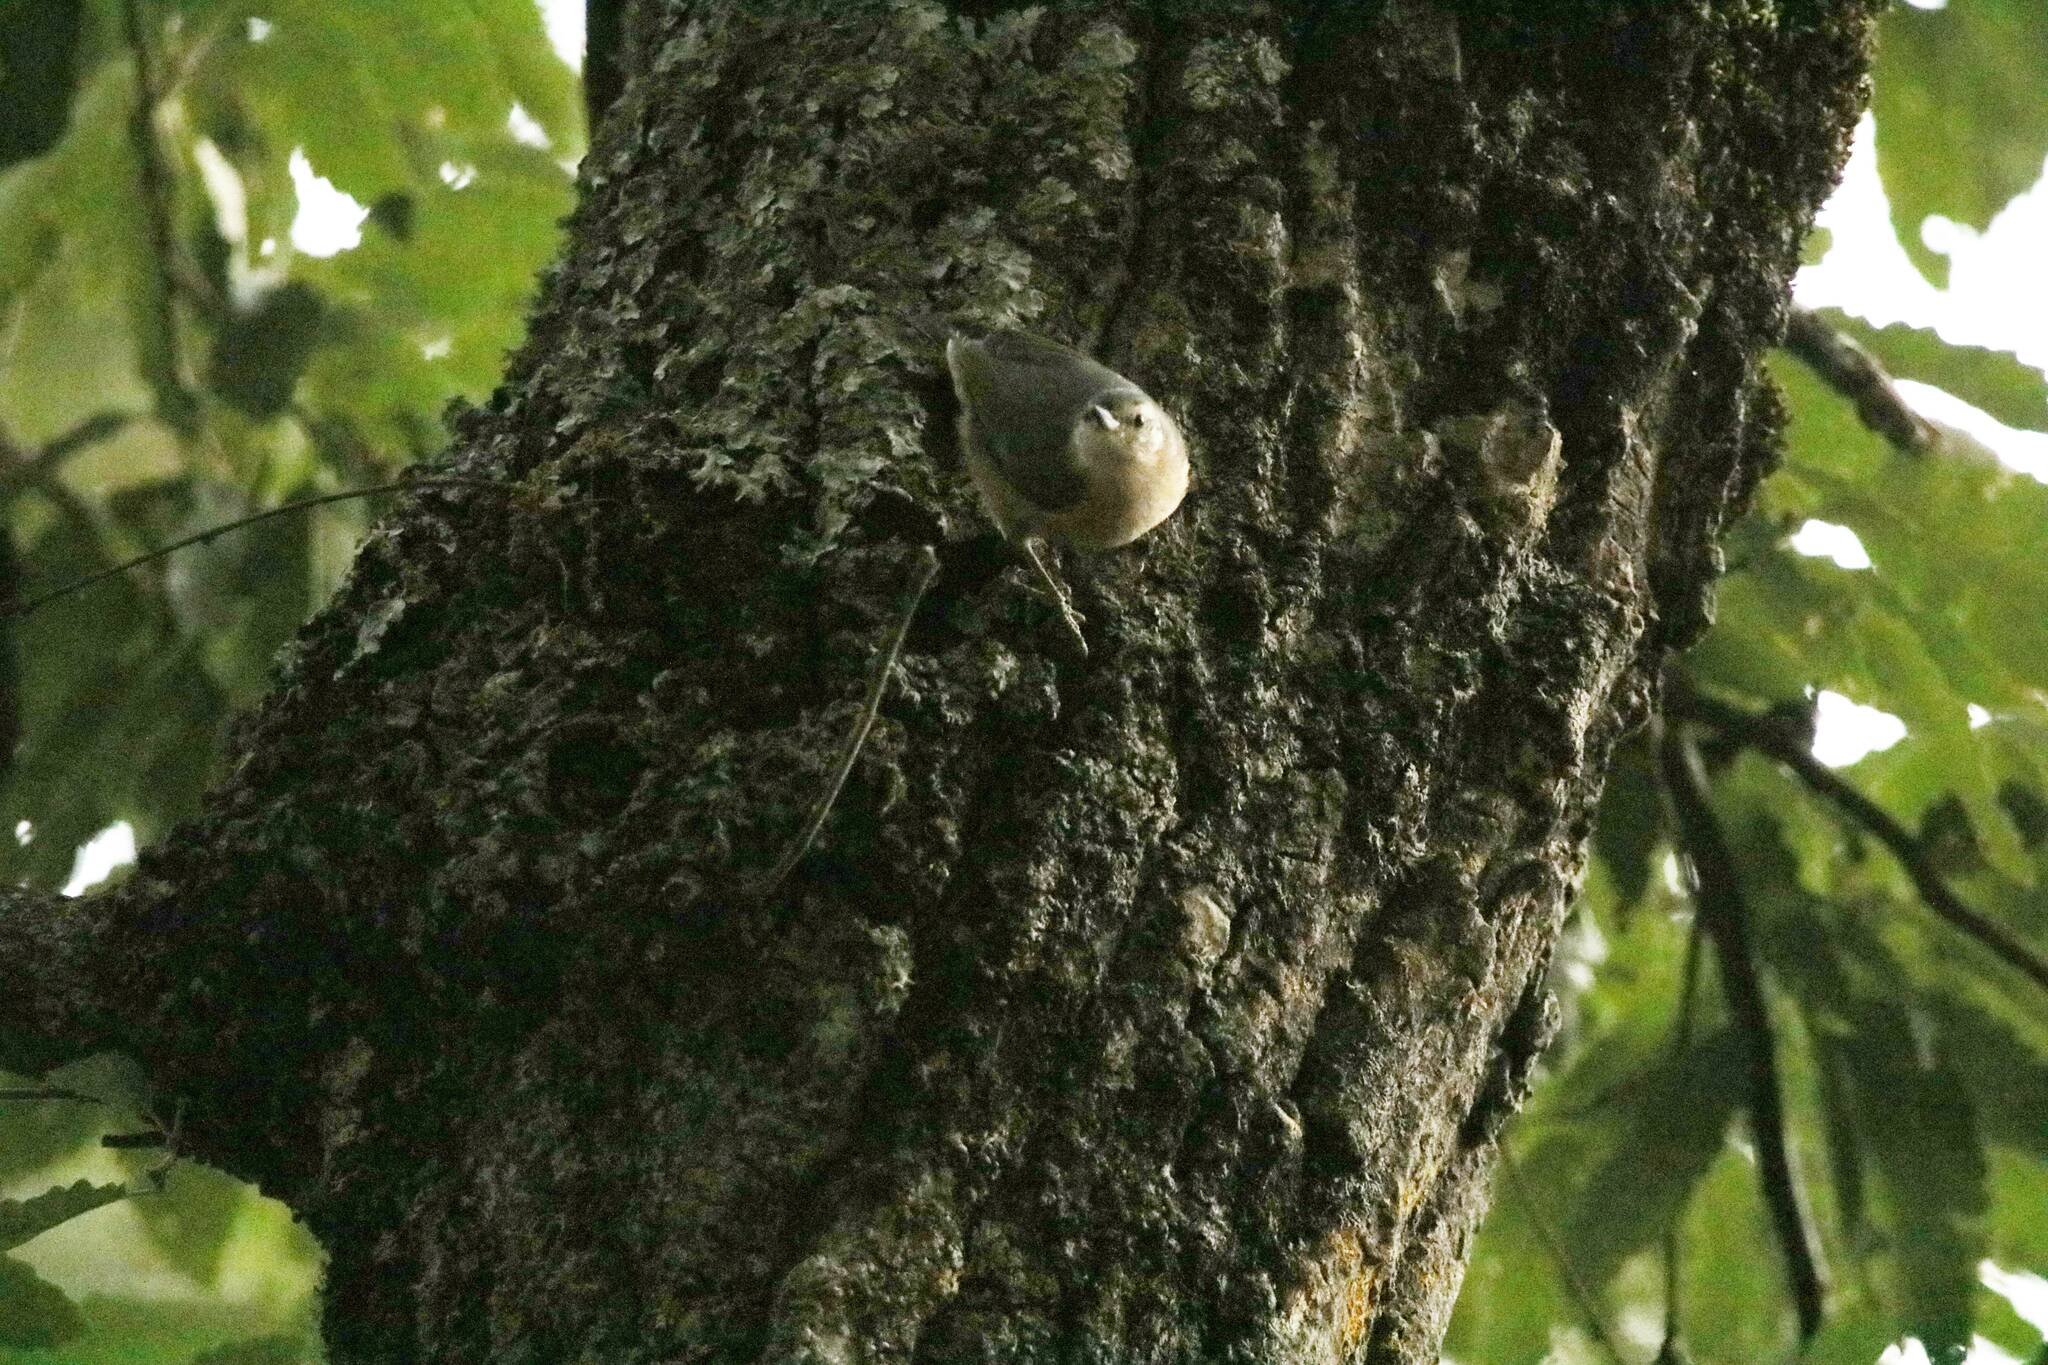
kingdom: Animalia
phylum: Chordata
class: Aves
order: Passeriformes
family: Sittidae
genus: Sitta
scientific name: Sitta ledanti
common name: Algerian nuthatch
